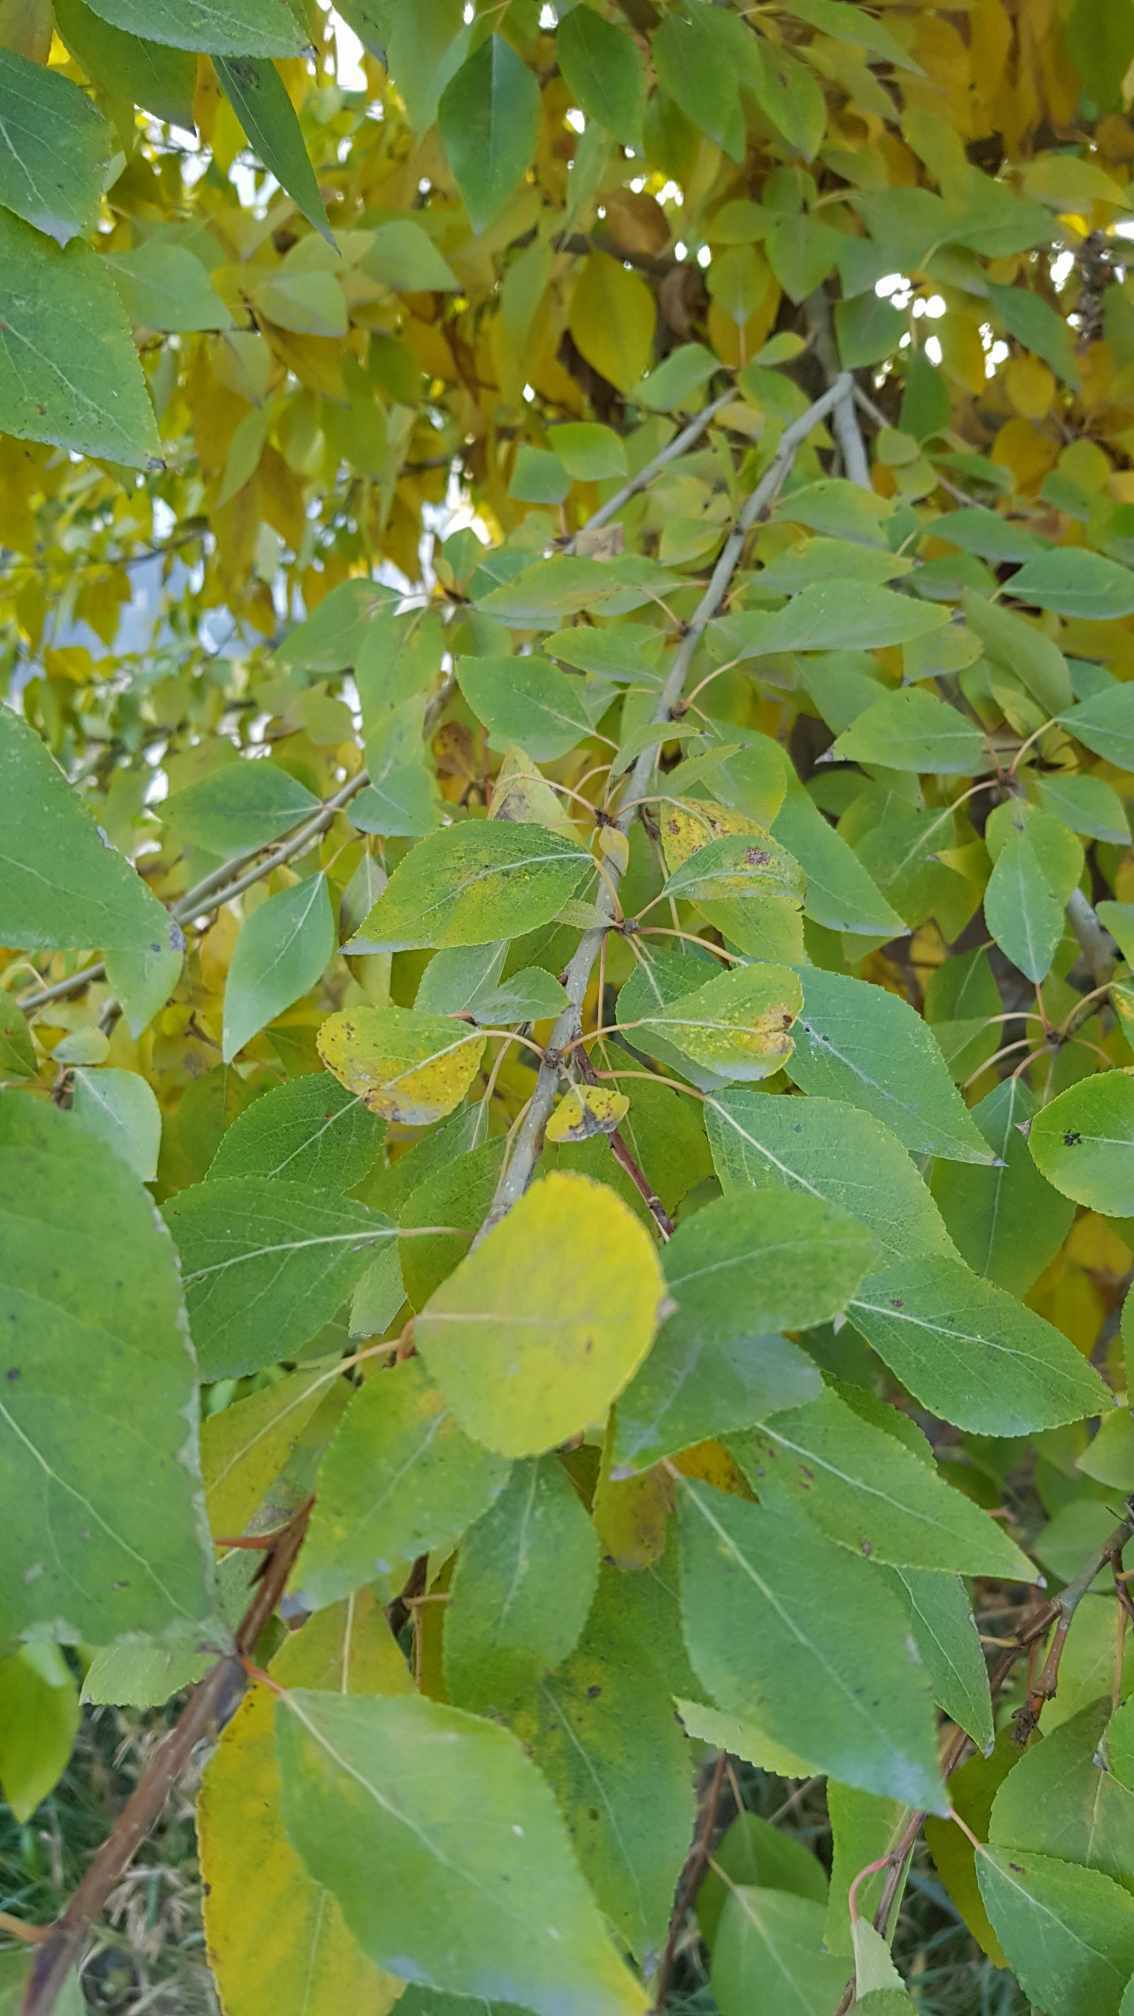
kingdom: Plantae
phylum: Tracheophyta
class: Magnoliopsida
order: Malpighiales
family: Salicaceae
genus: Populus
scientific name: Populus laurifolia
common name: Laurel-leaf poplar
